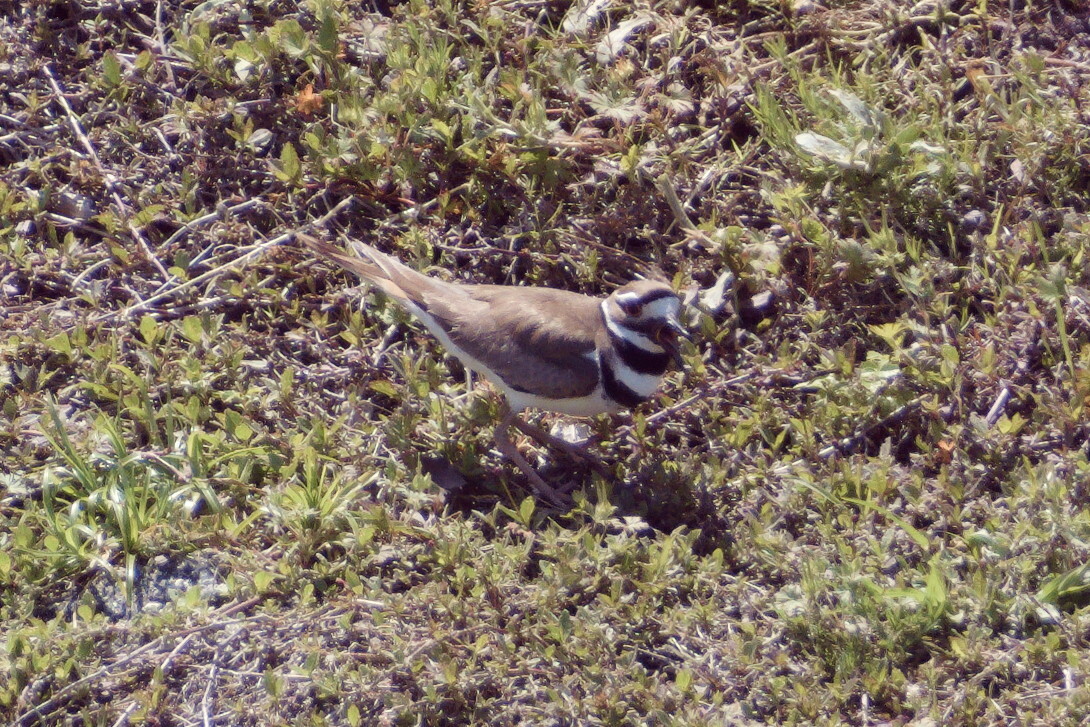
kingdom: Animalia
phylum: Chordata
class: Aves
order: Charadriiformes
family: Charadriidae
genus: Charadrius
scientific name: Charadrius vociferus
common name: Killdeer
